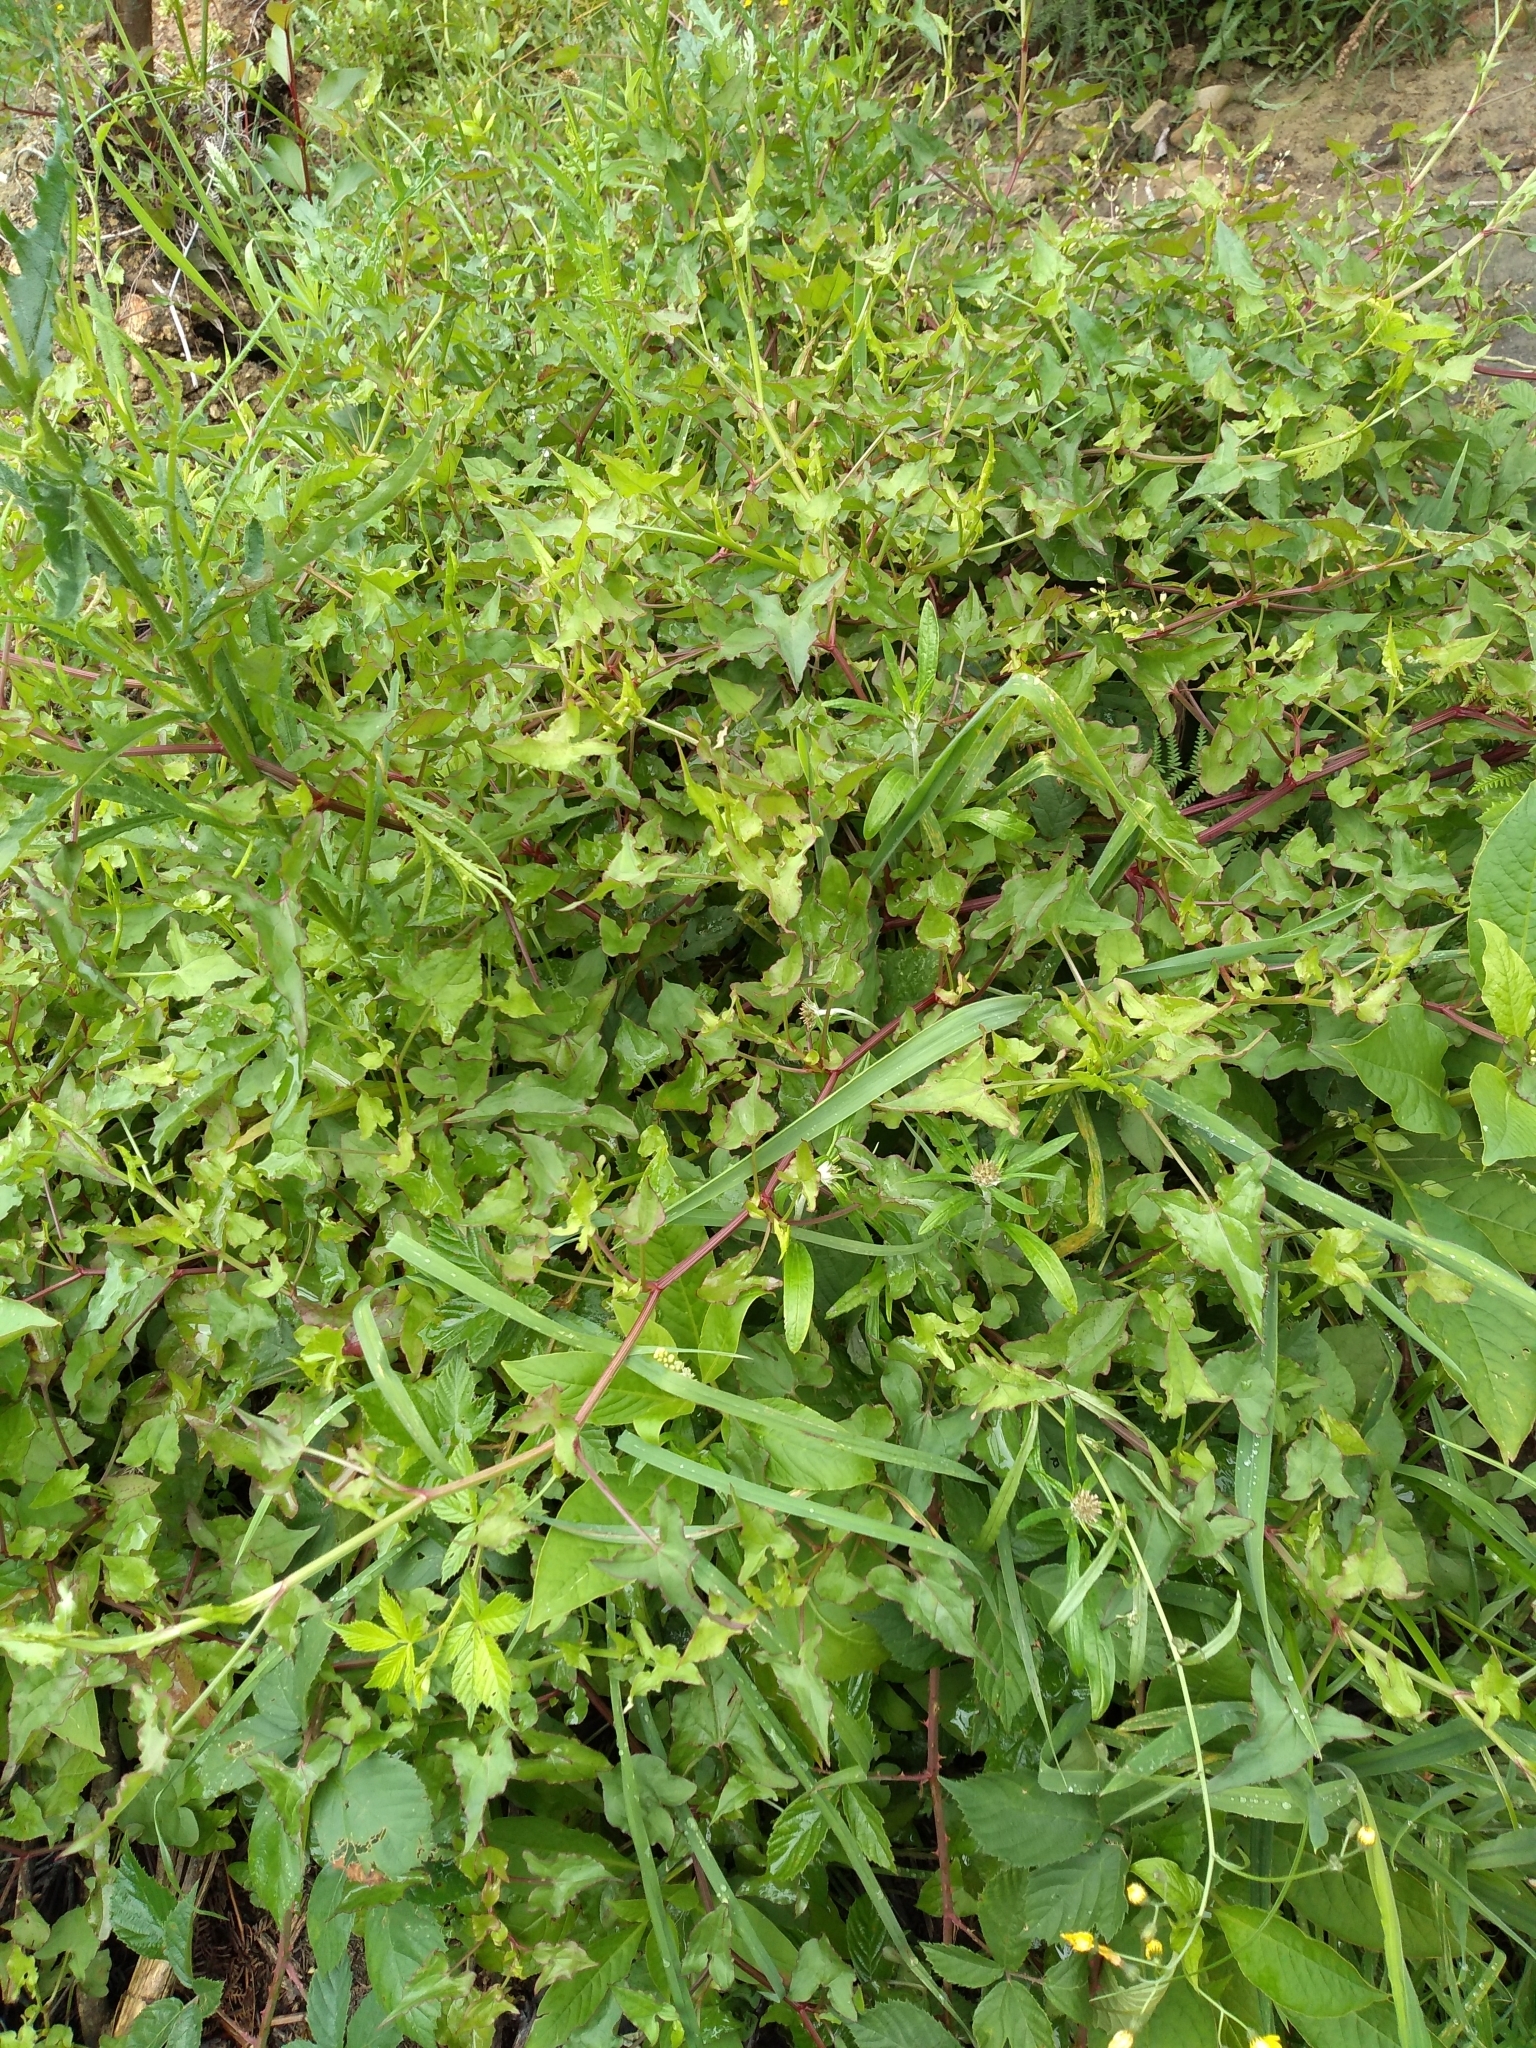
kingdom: Plantae
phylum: Tracheophyta
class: Magnoliopsida
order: Caryophyllales
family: Polygonaceae
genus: Rumex
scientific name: Rumex sagittatus
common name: Climbing dock
